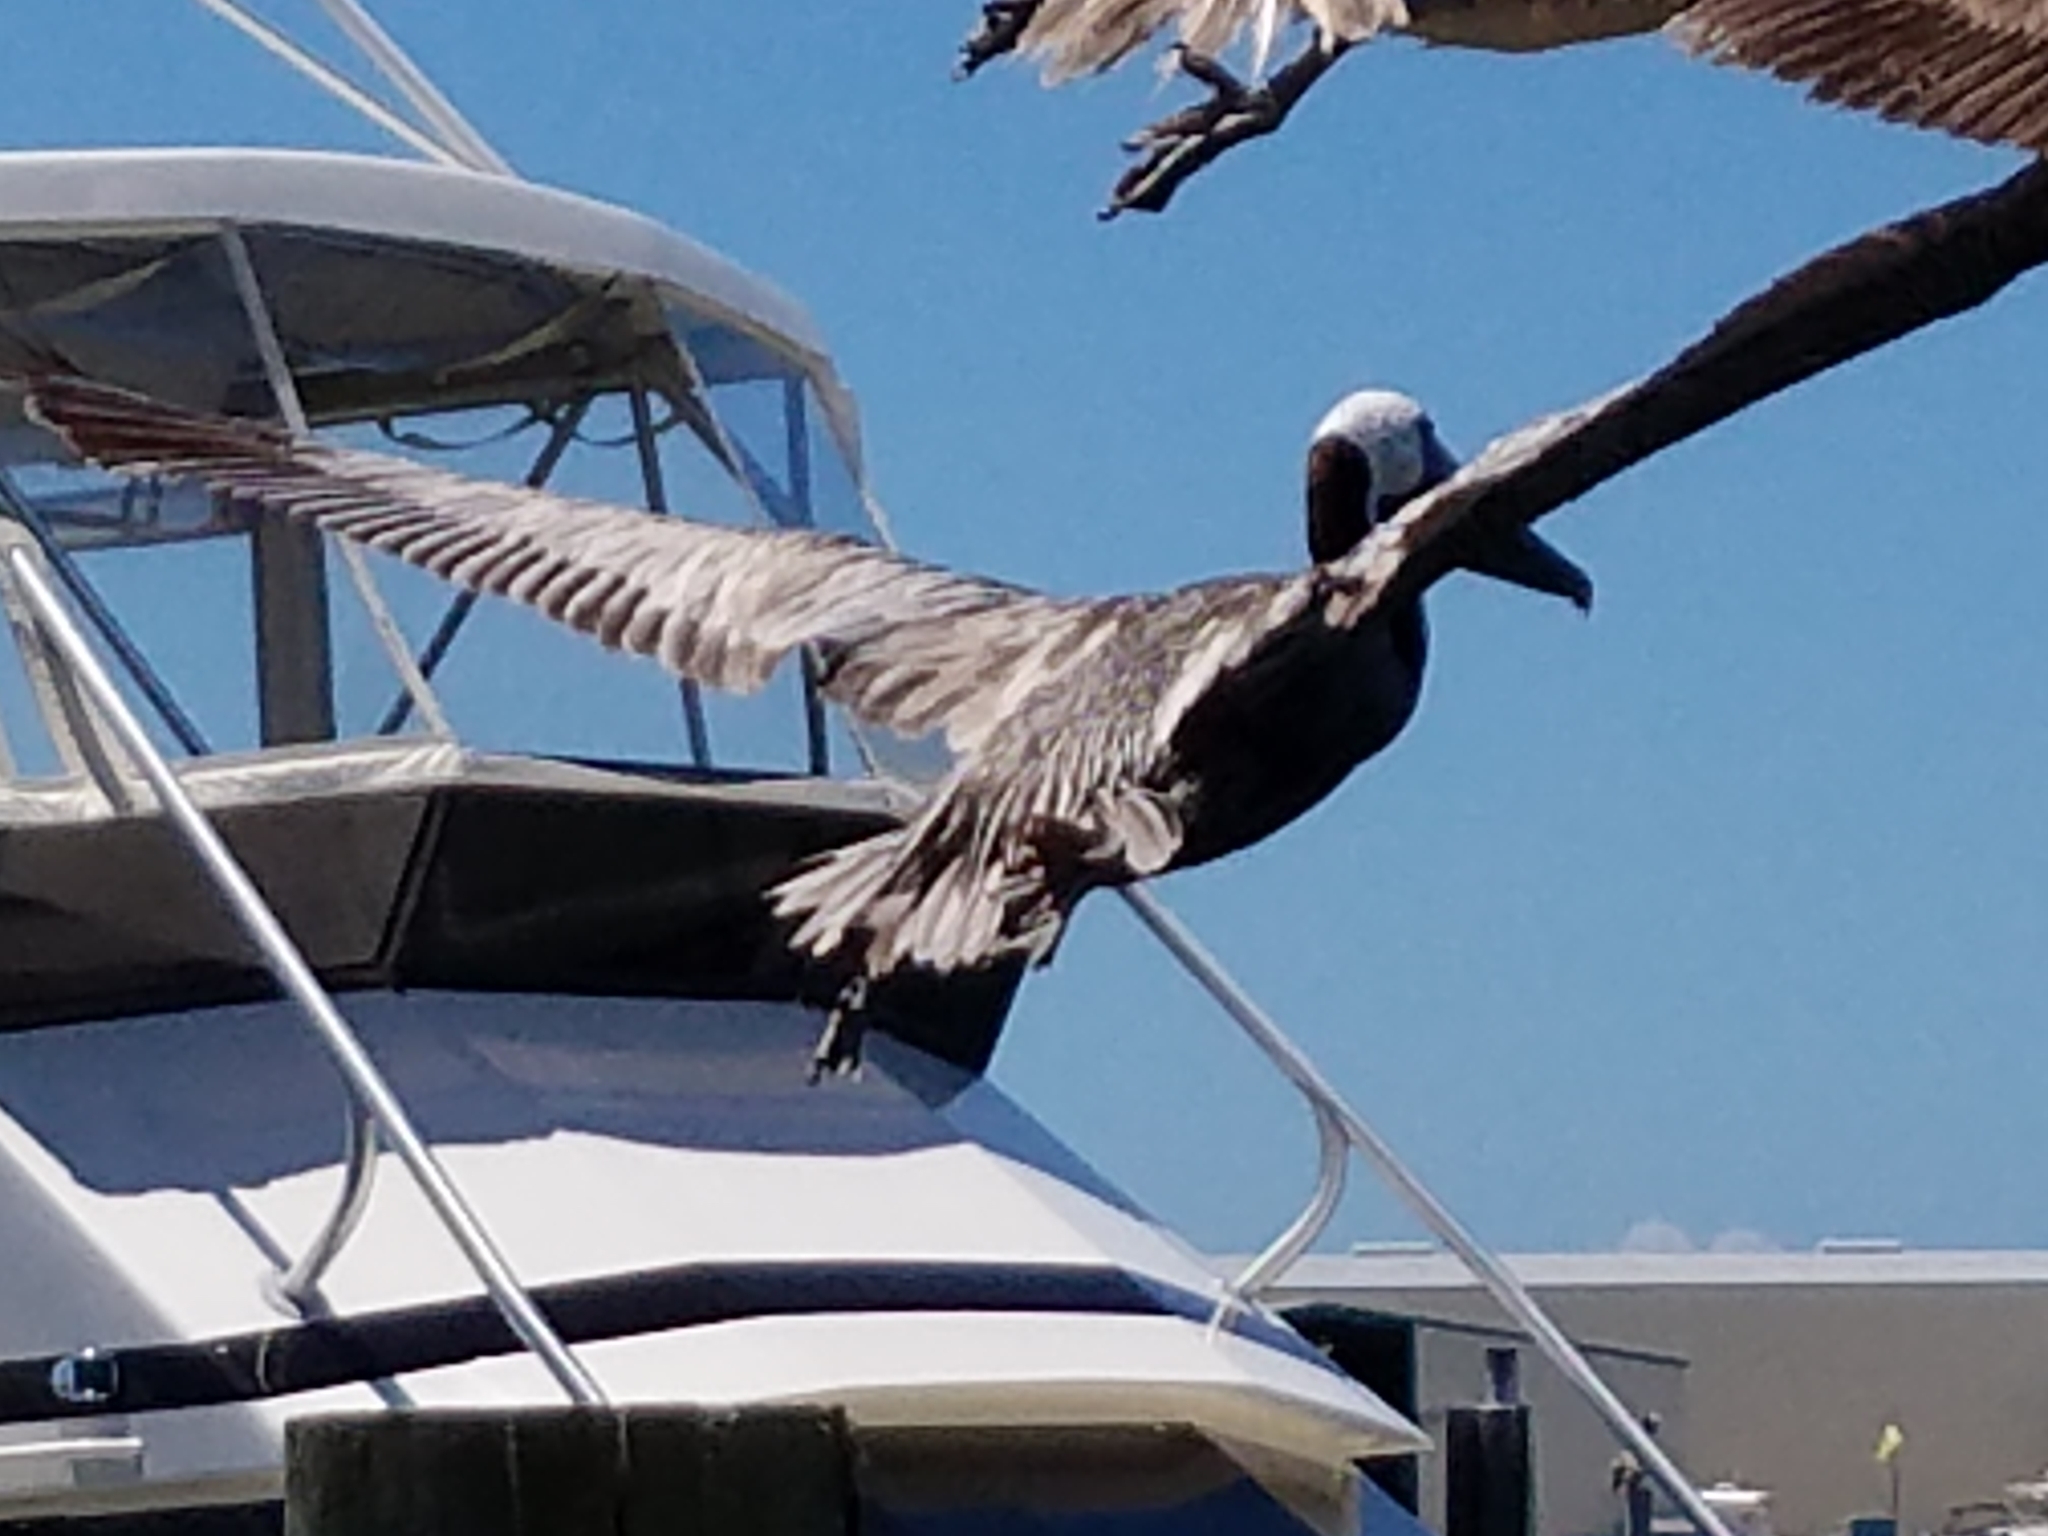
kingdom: Animalia
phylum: Chordata
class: Aves
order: Pelecaniformes
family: Pelecanidae
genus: Pelecanus
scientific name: Pelecanus occidentalis
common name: Brown pelican
